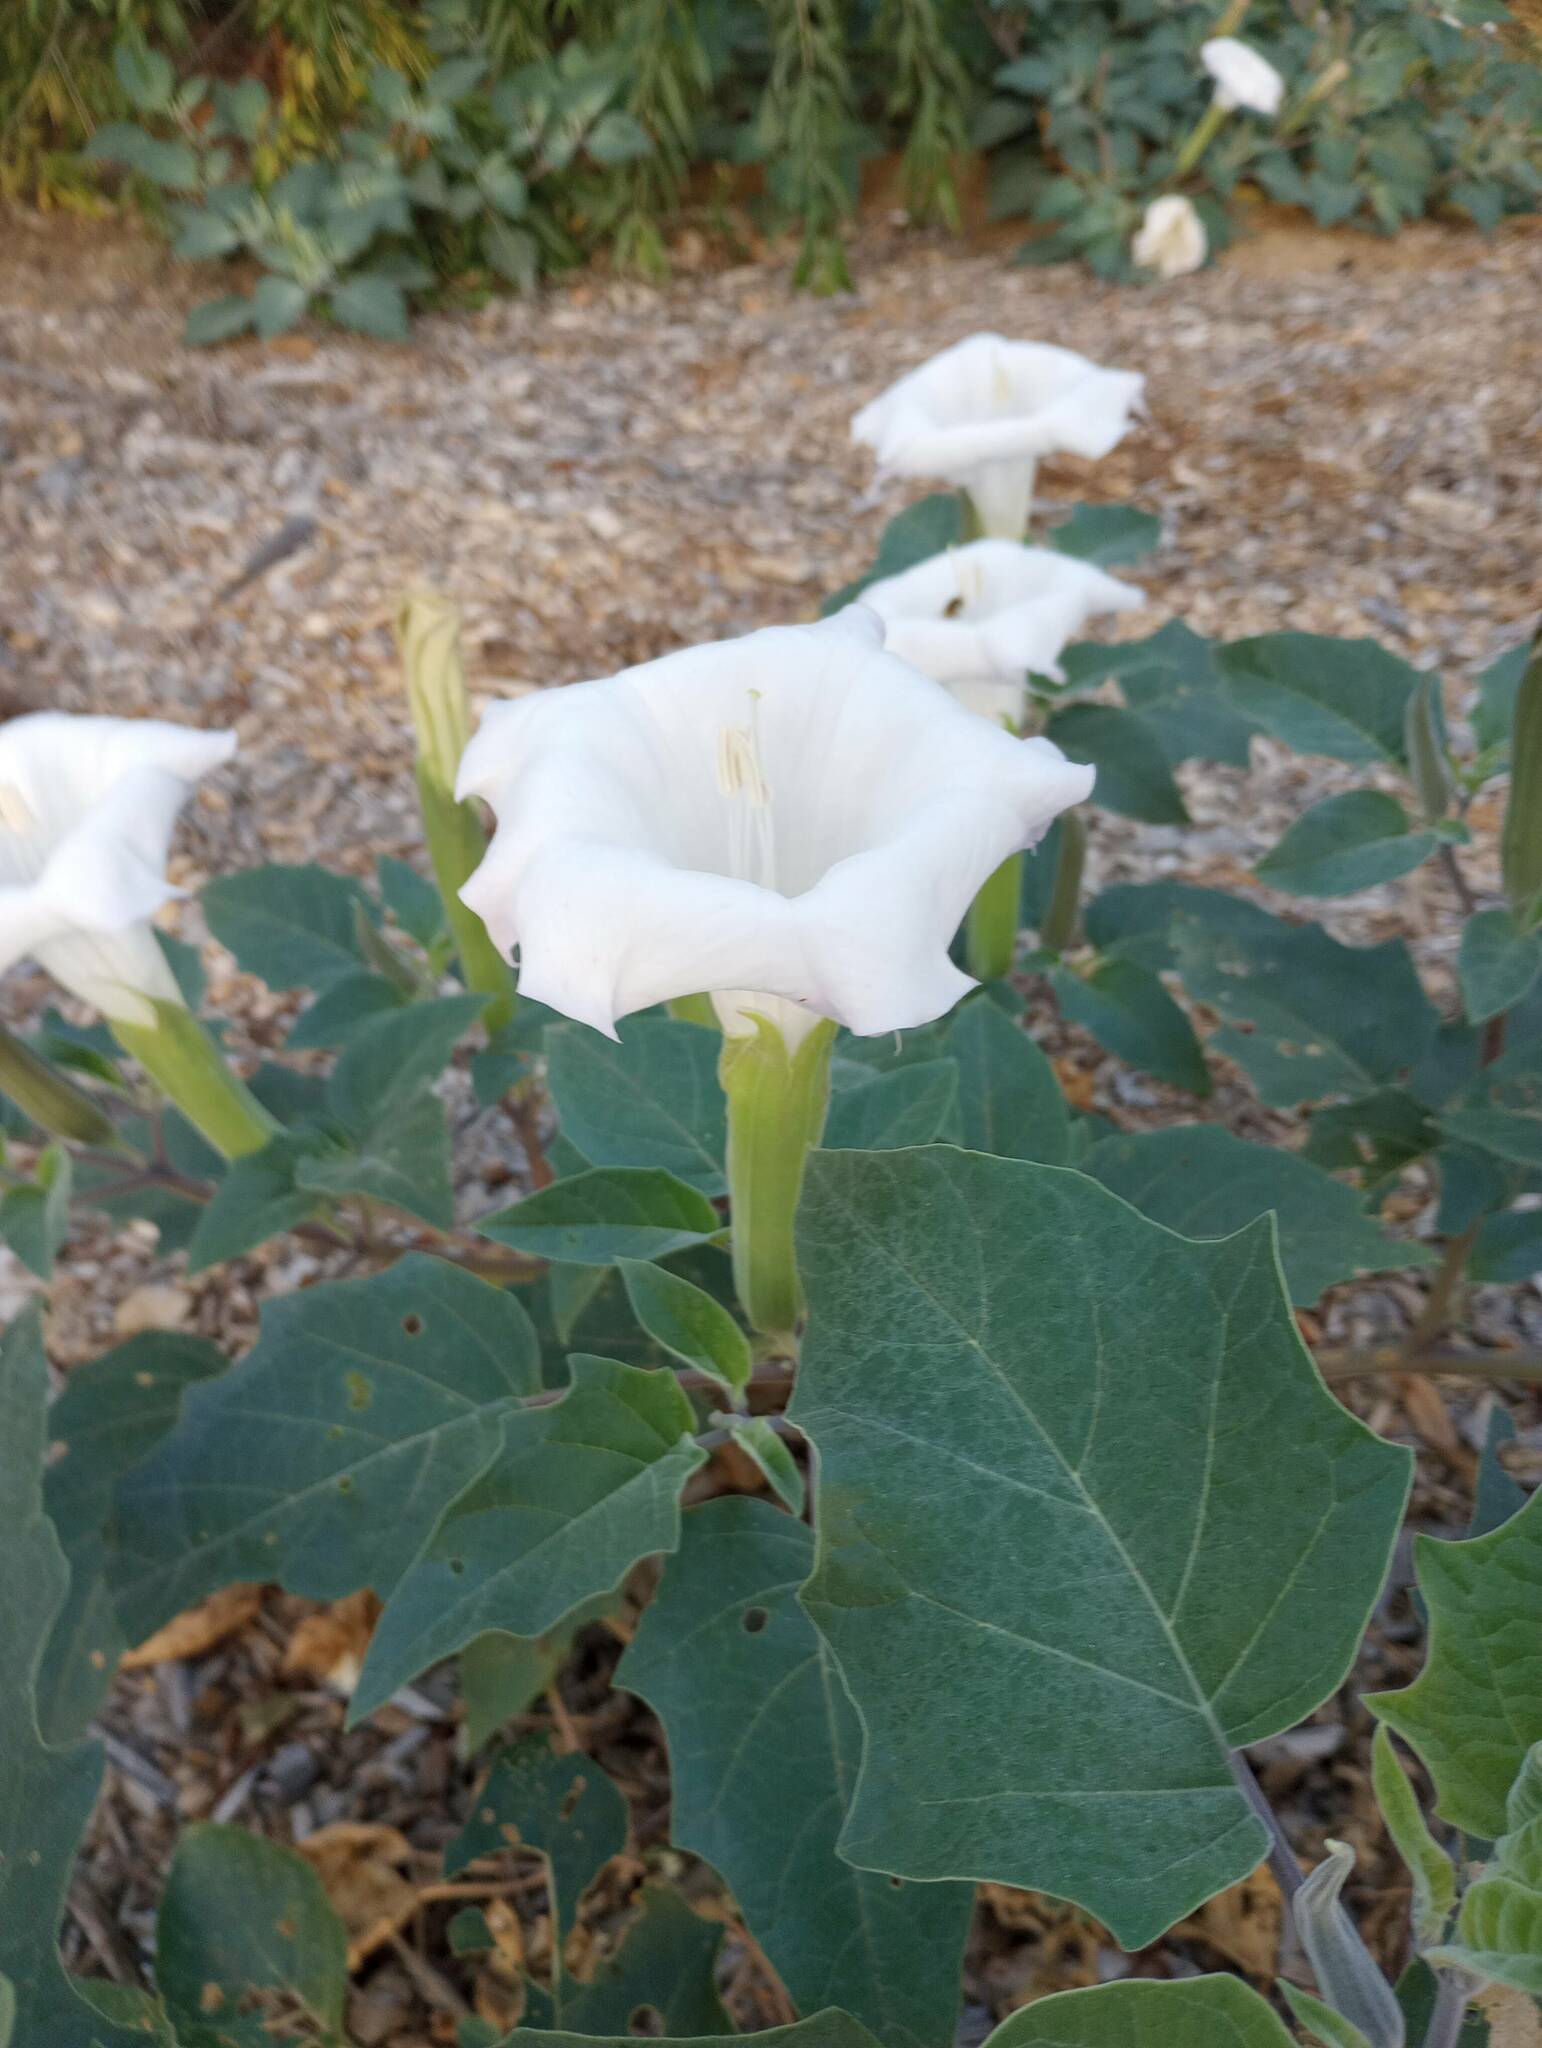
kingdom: Plantae
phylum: Tracheophyta
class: Magnoliopsida
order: Solanales
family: Solanaceae
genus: Datura
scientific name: Datura wrightii
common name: Sacred thorn-apple
